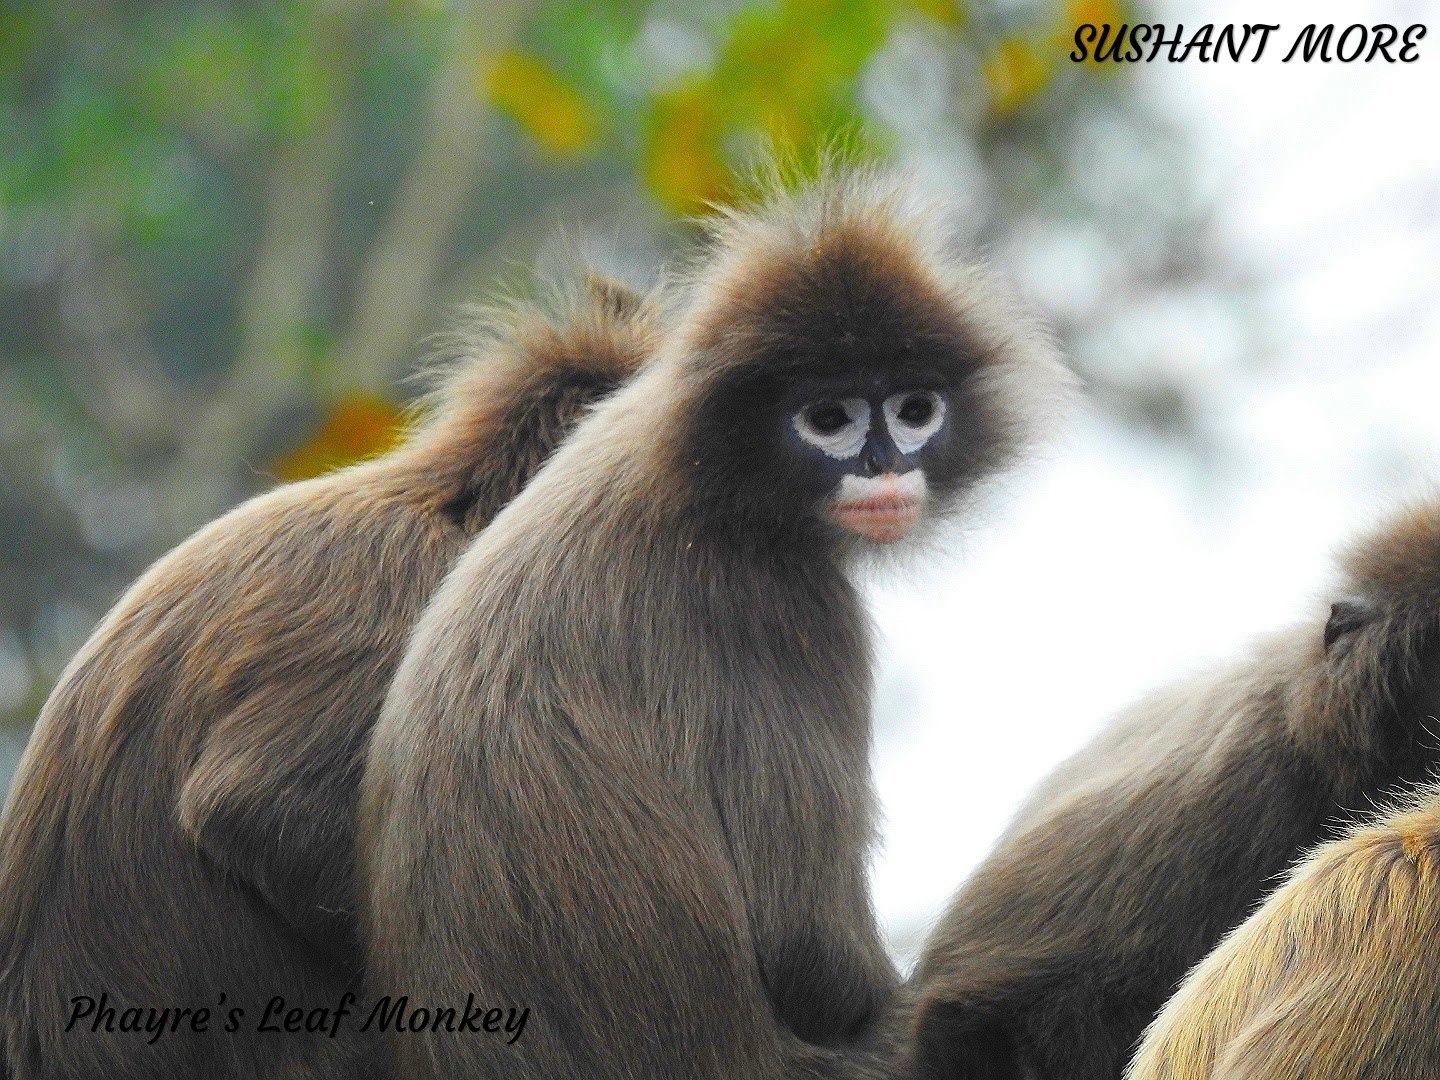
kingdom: Animalia
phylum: Chordata
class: Mammalia
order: Primates
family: Cercopithecidae
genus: Trachypithecus
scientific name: Trachypithecus phayrei
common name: Phayre's leaf monkey
